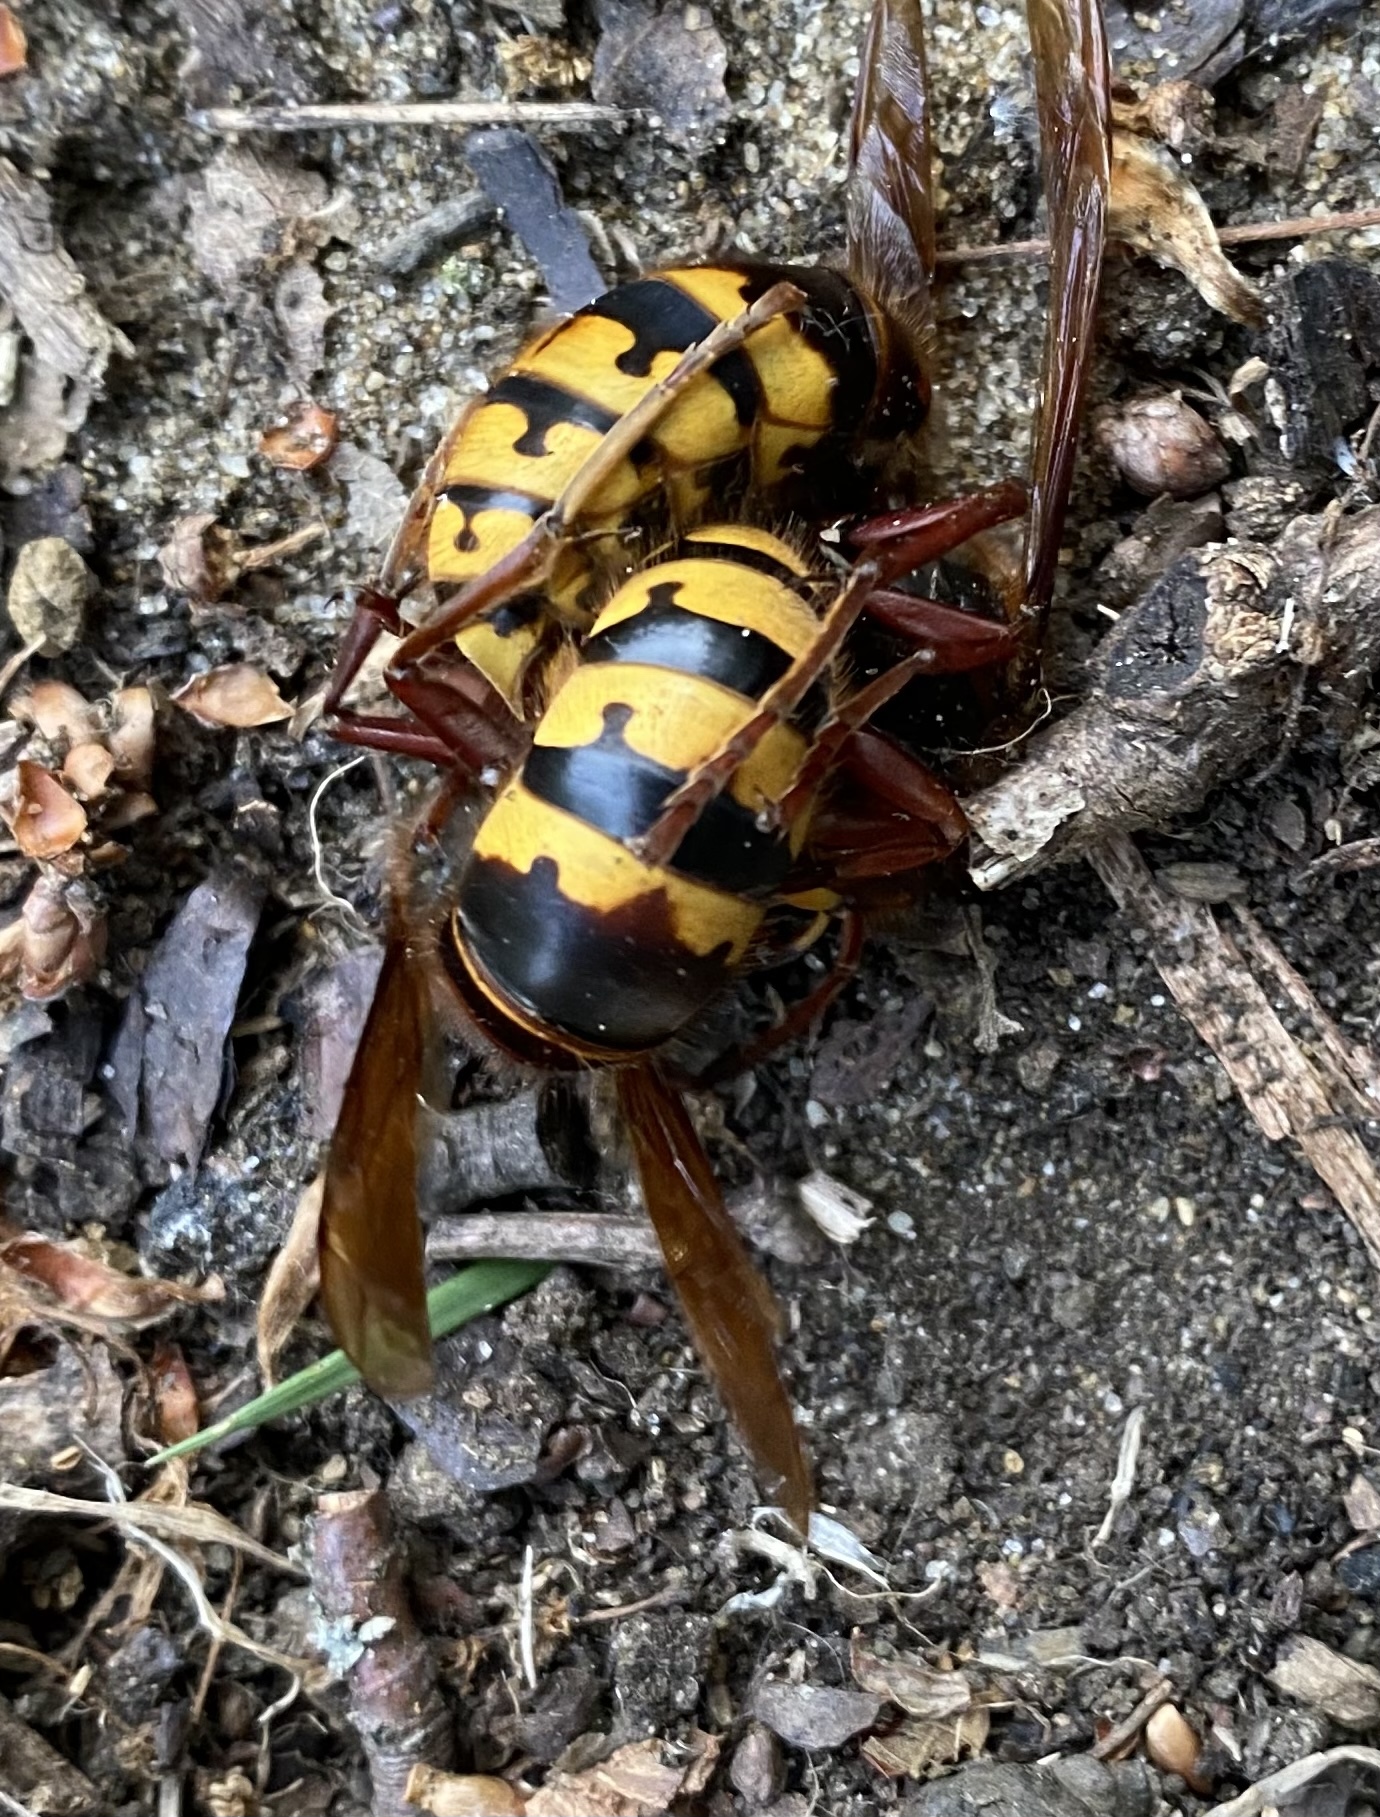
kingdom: Animalia
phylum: Arthropoda
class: Insecta
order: Hymenoptera
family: Vespidae
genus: Vespa
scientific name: Vespa crabro
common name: Hornet
